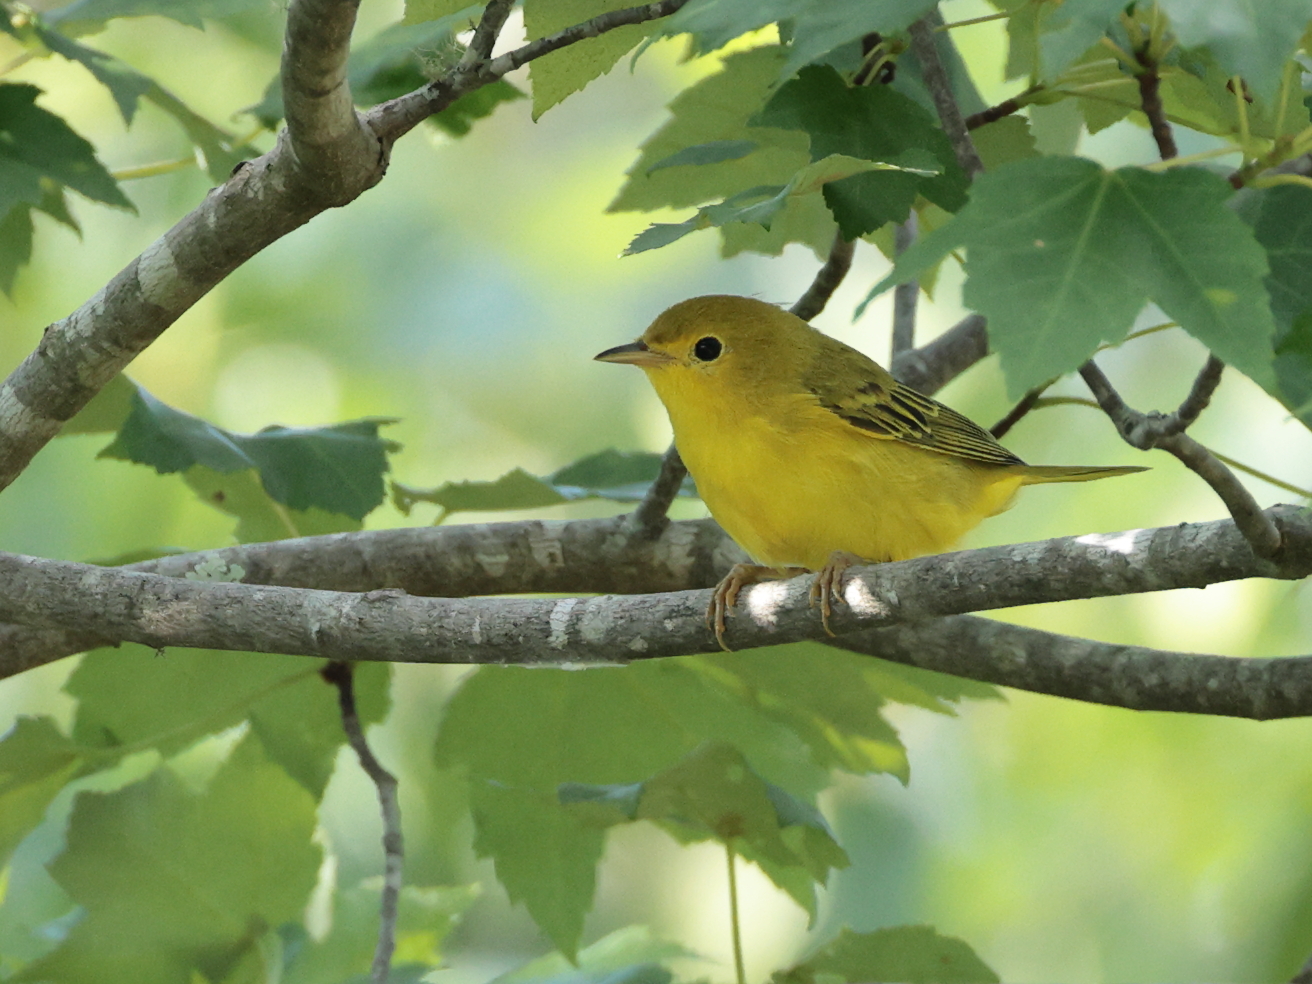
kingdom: Animalia
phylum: Chordata
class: Aves
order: Passeriformes
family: Parulidae
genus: Setophaga
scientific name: Setophaga petechia
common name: Yellow warbler
